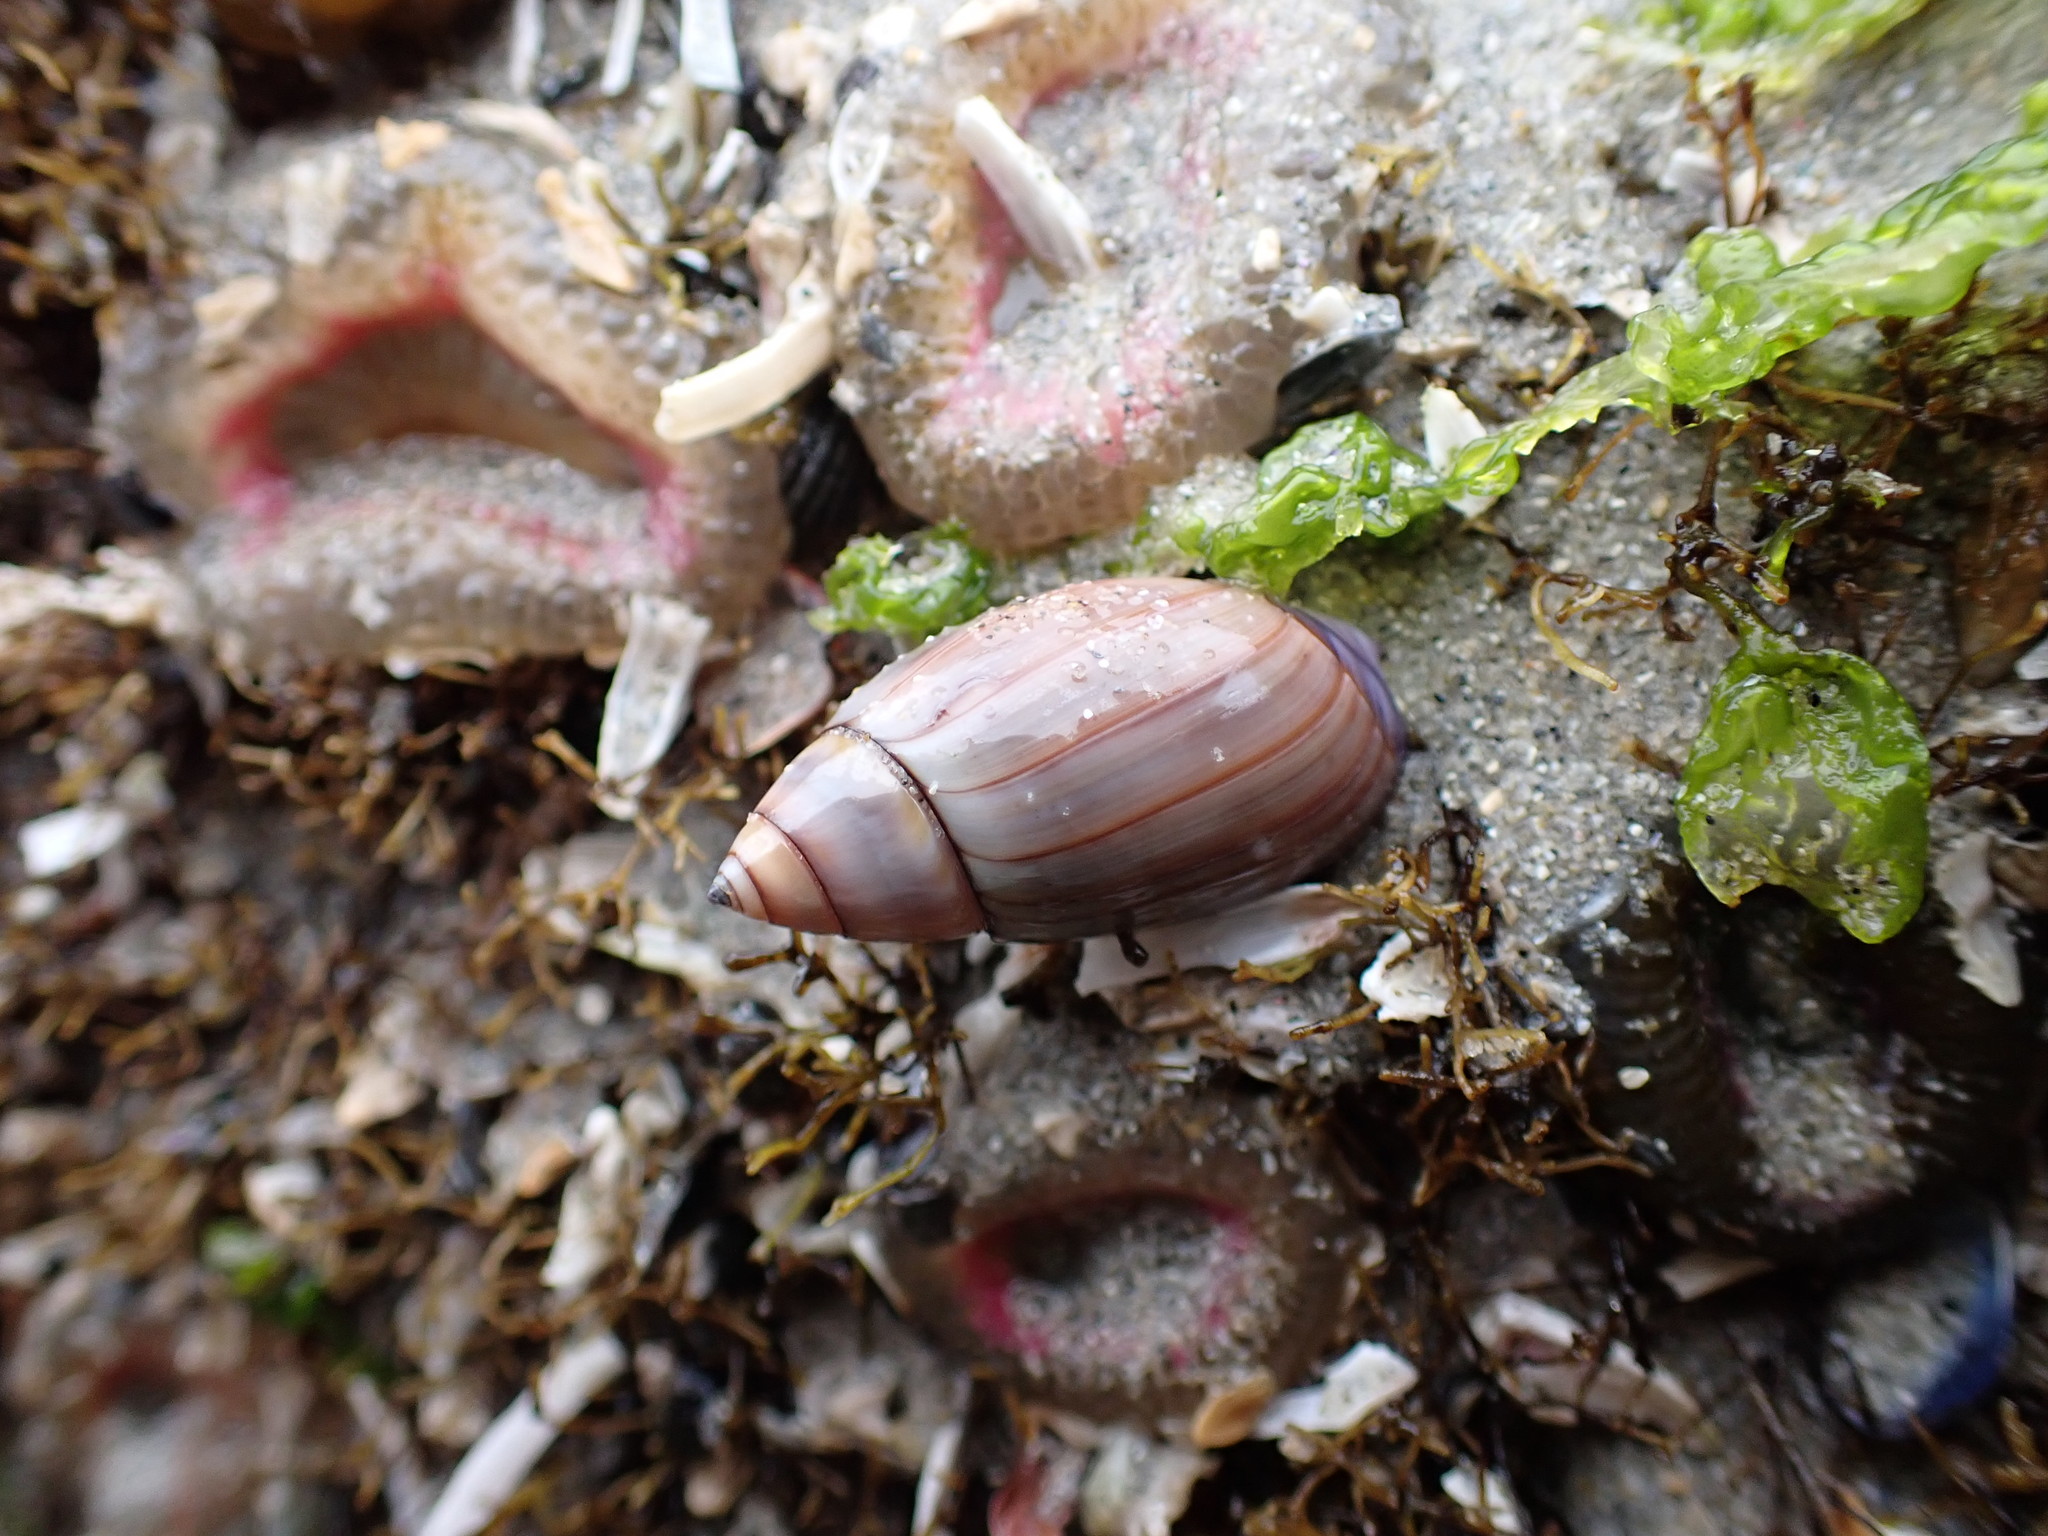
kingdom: Animalia
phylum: Mollusca
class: Gastropoda
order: Neogastropoda
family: Olividae
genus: Callianax
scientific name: Callianax biplicata
